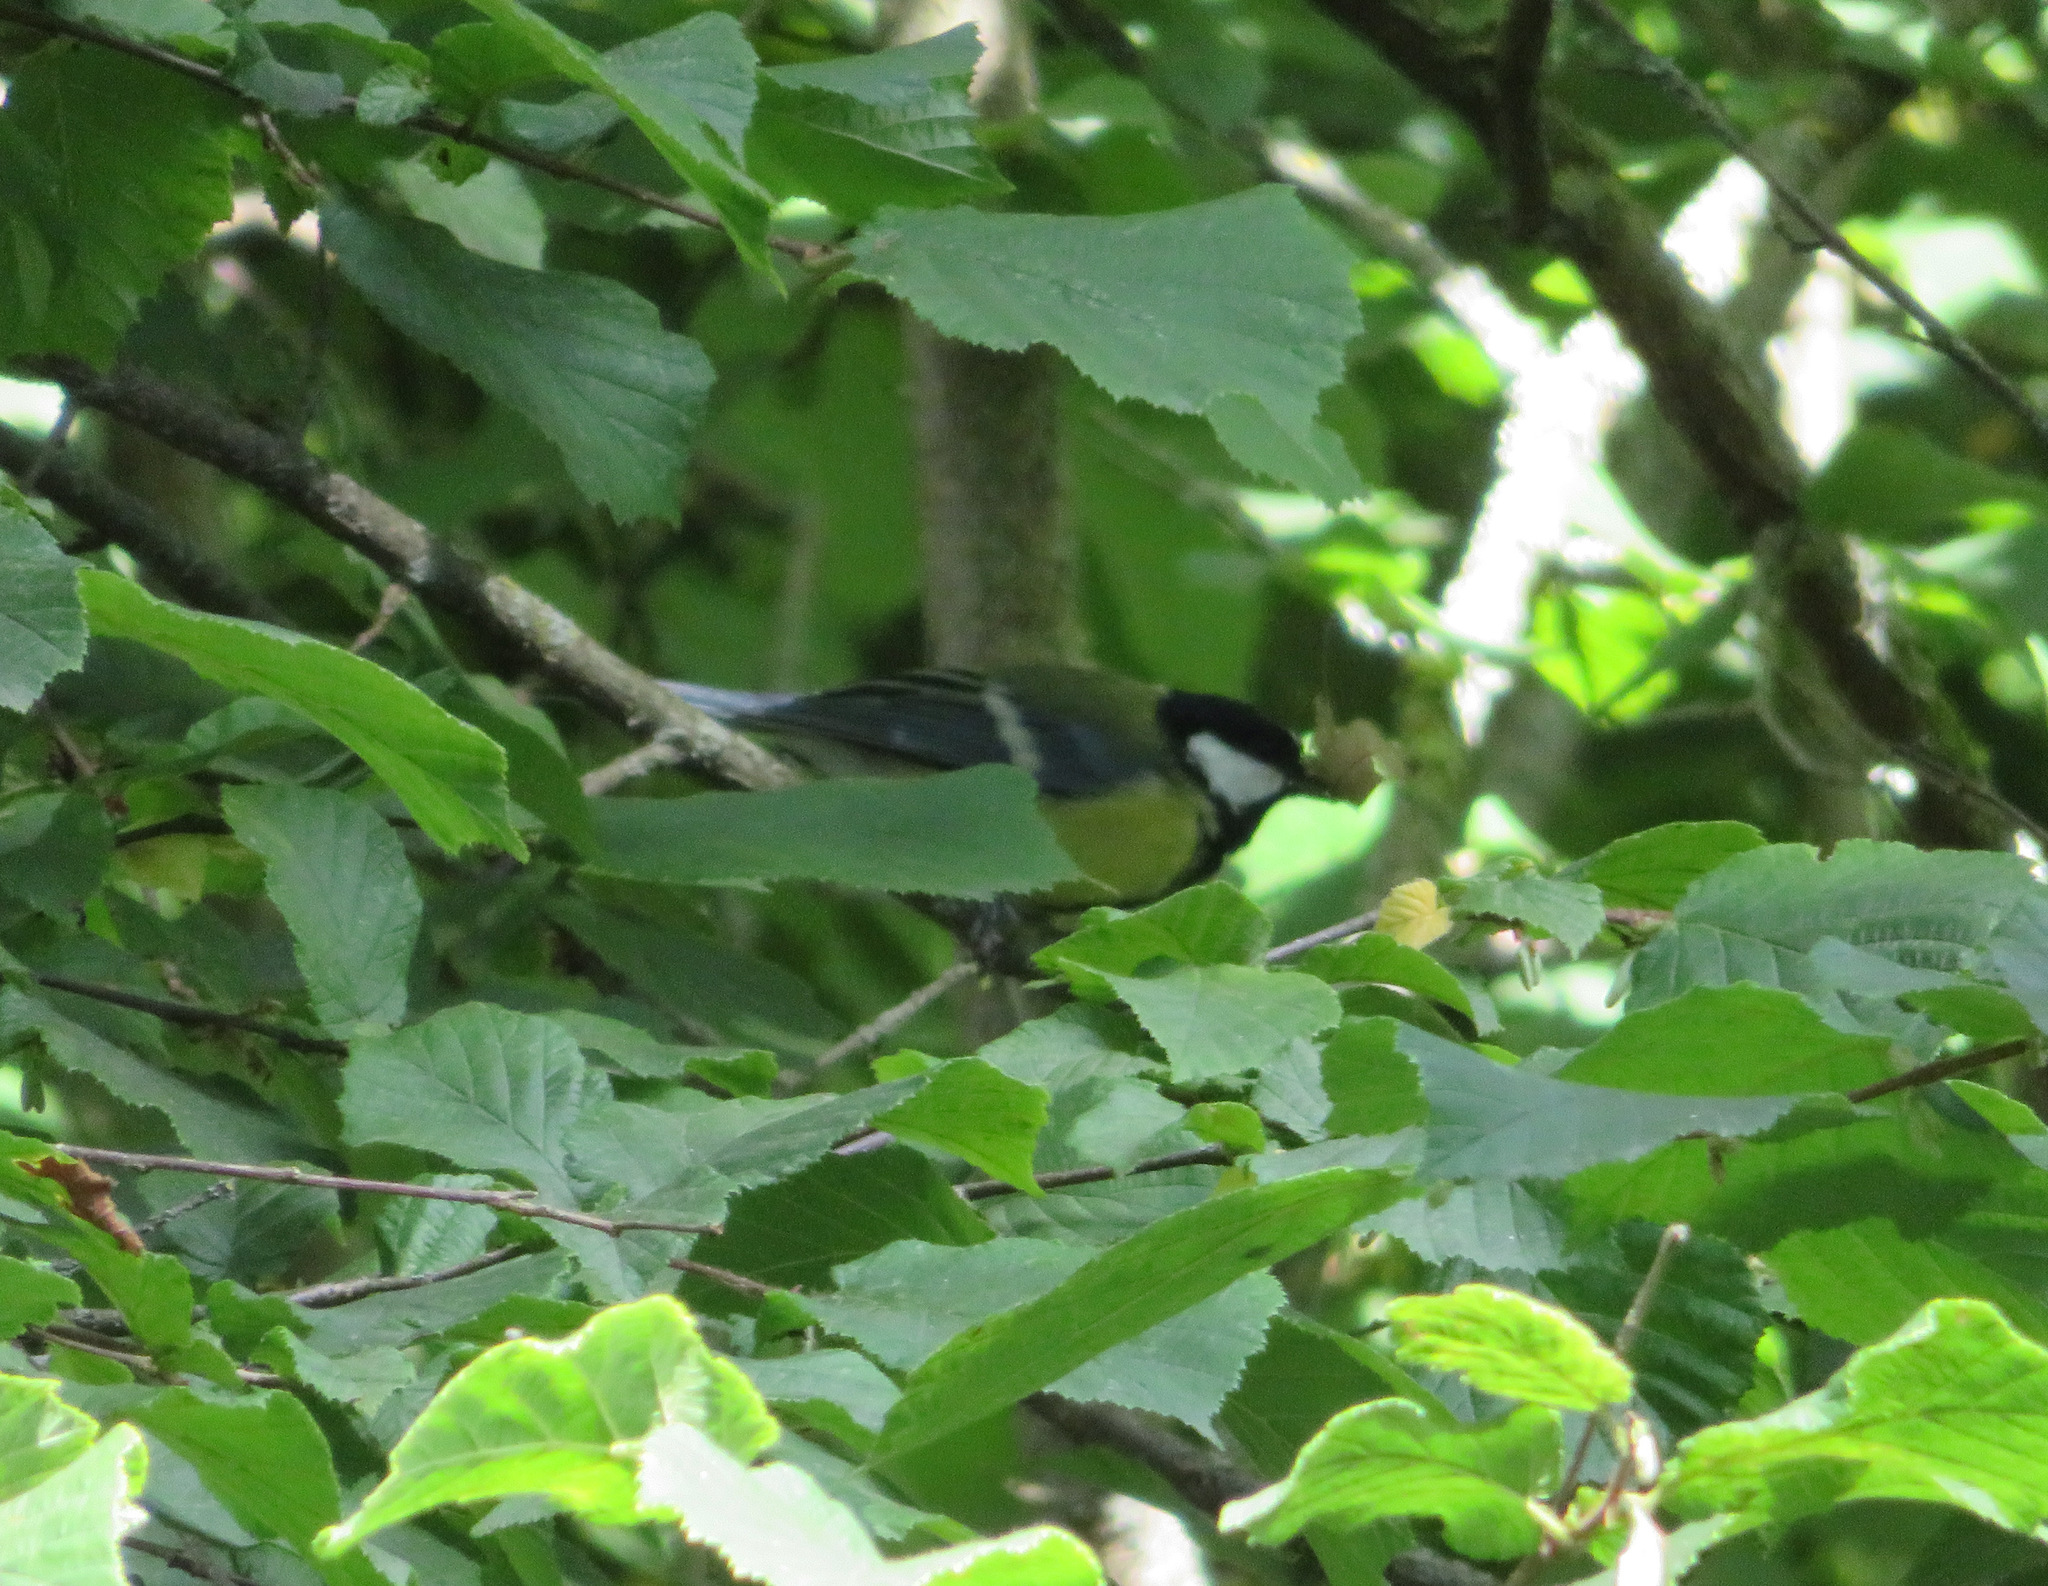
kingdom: Animalia
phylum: Chordata
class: Aves
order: Passeriformes
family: Paridae
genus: Parus
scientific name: Parus major
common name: Great tit
